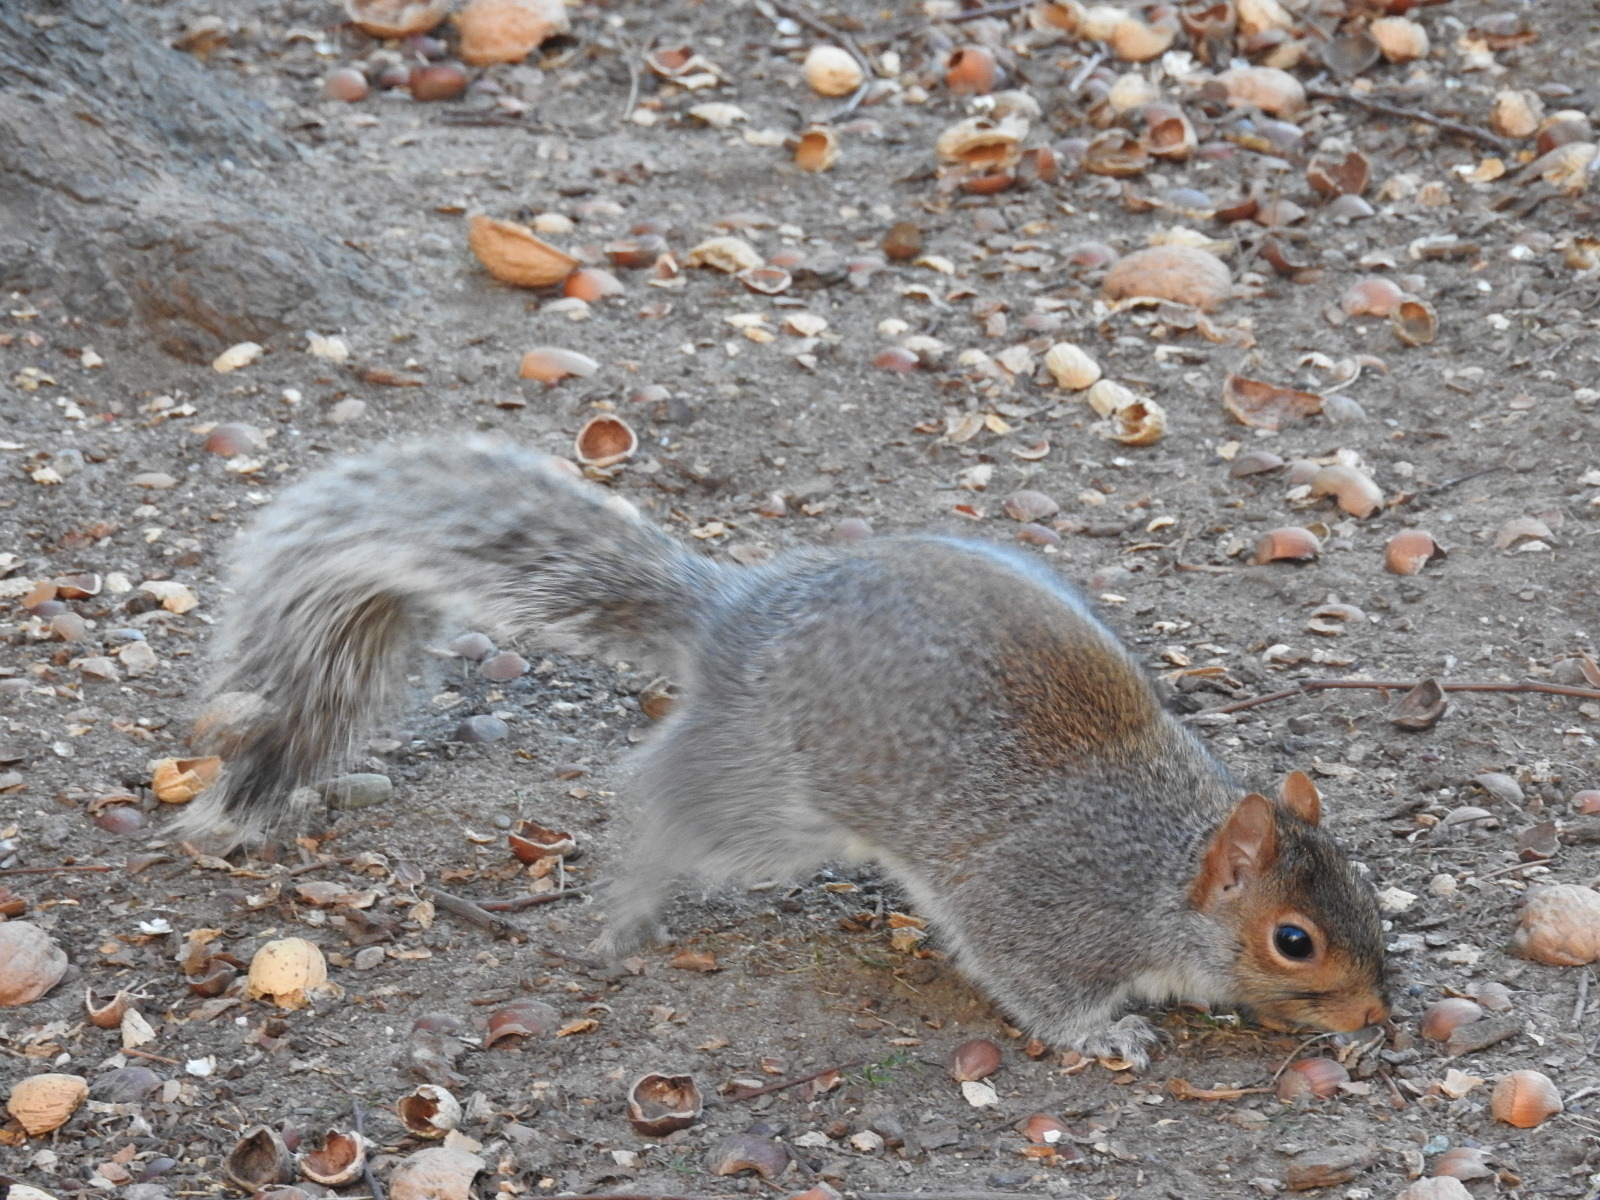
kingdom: Animalia
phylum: Chordata
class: Mammalia
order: Rodentia
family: Sciuridae
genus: Sciurus
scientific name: Sciurus carolinensis
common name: Eastern gray squirrel
